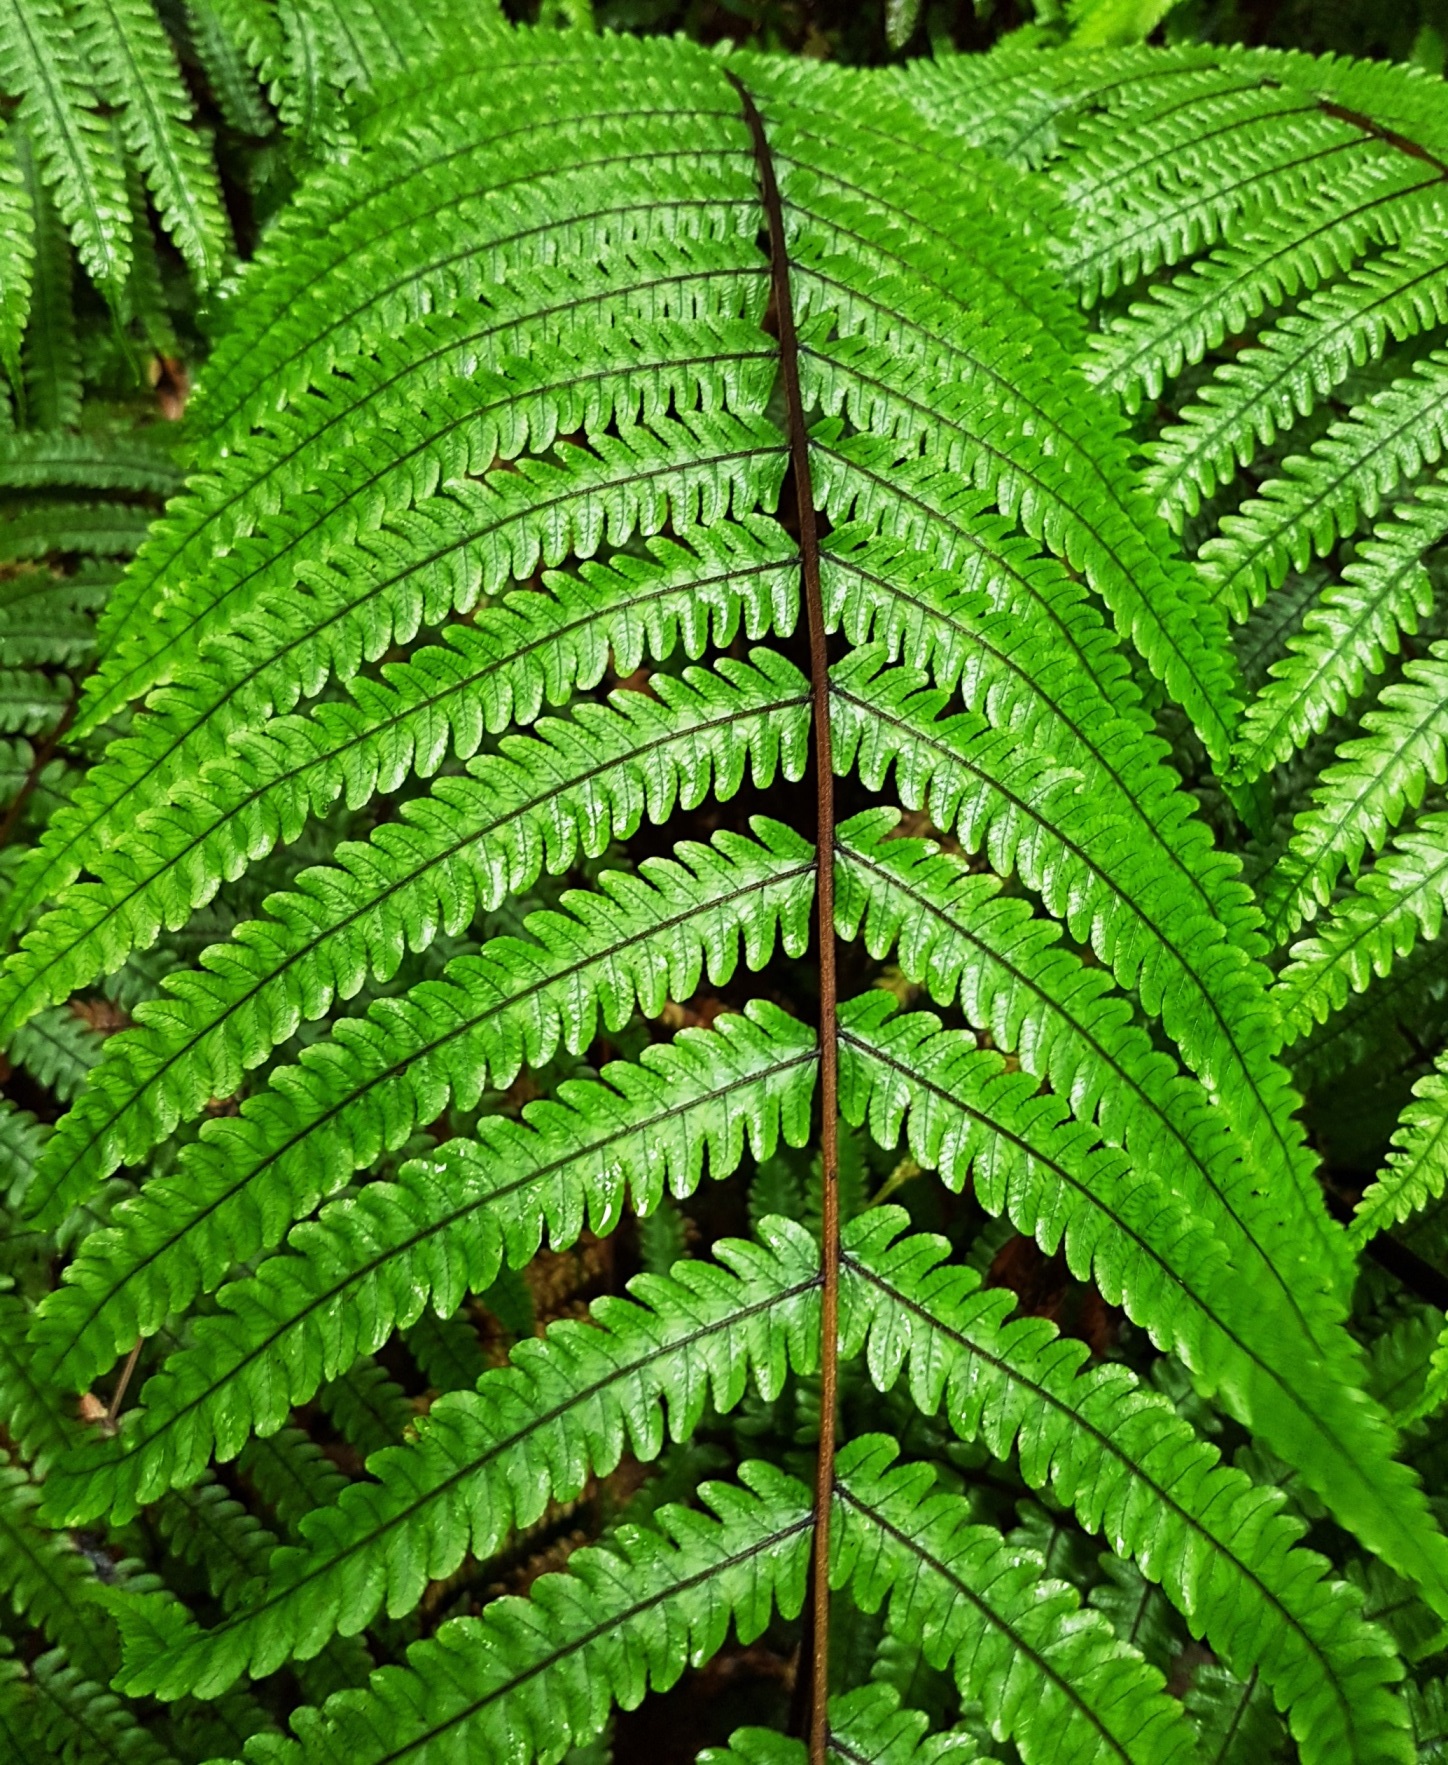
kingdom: Plantae
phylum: Tracheophyta
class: Polypodiopsida
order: Polypodiales
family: Thelypteridaceae
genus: Pakau
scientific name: Pakau pennigera
